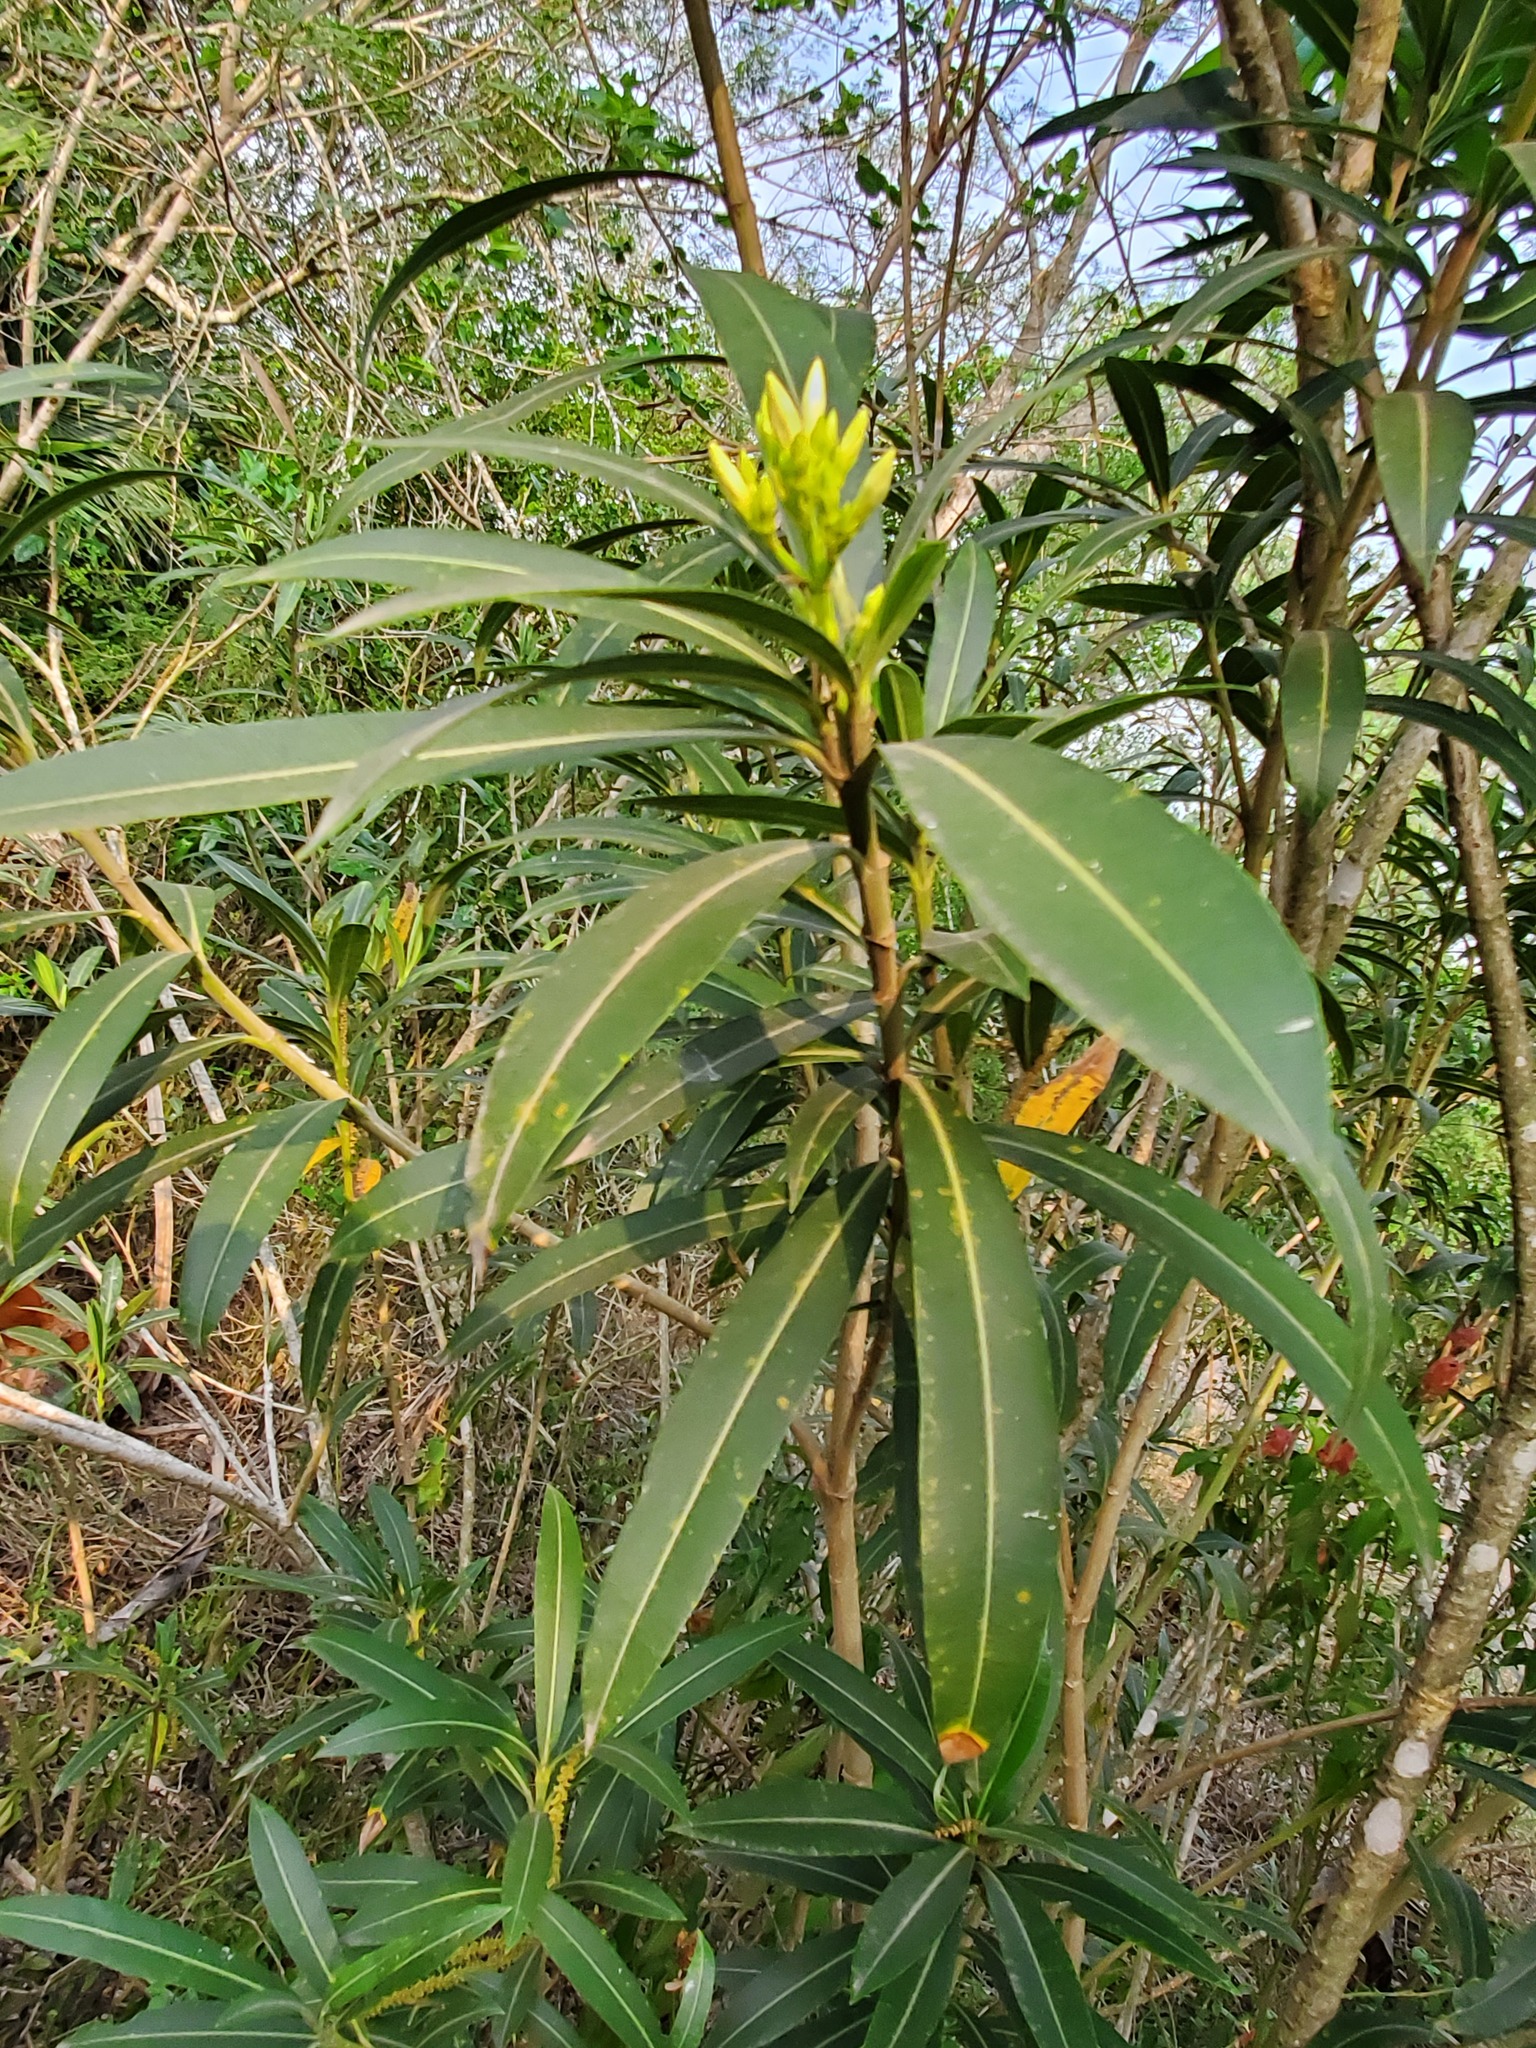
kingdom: Plantae
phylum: Tracheophyta
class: Magnoliopsida
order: Gentianales
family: Apocynaceae
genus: Nerium
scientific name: Nerium oleander
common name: Oleander
